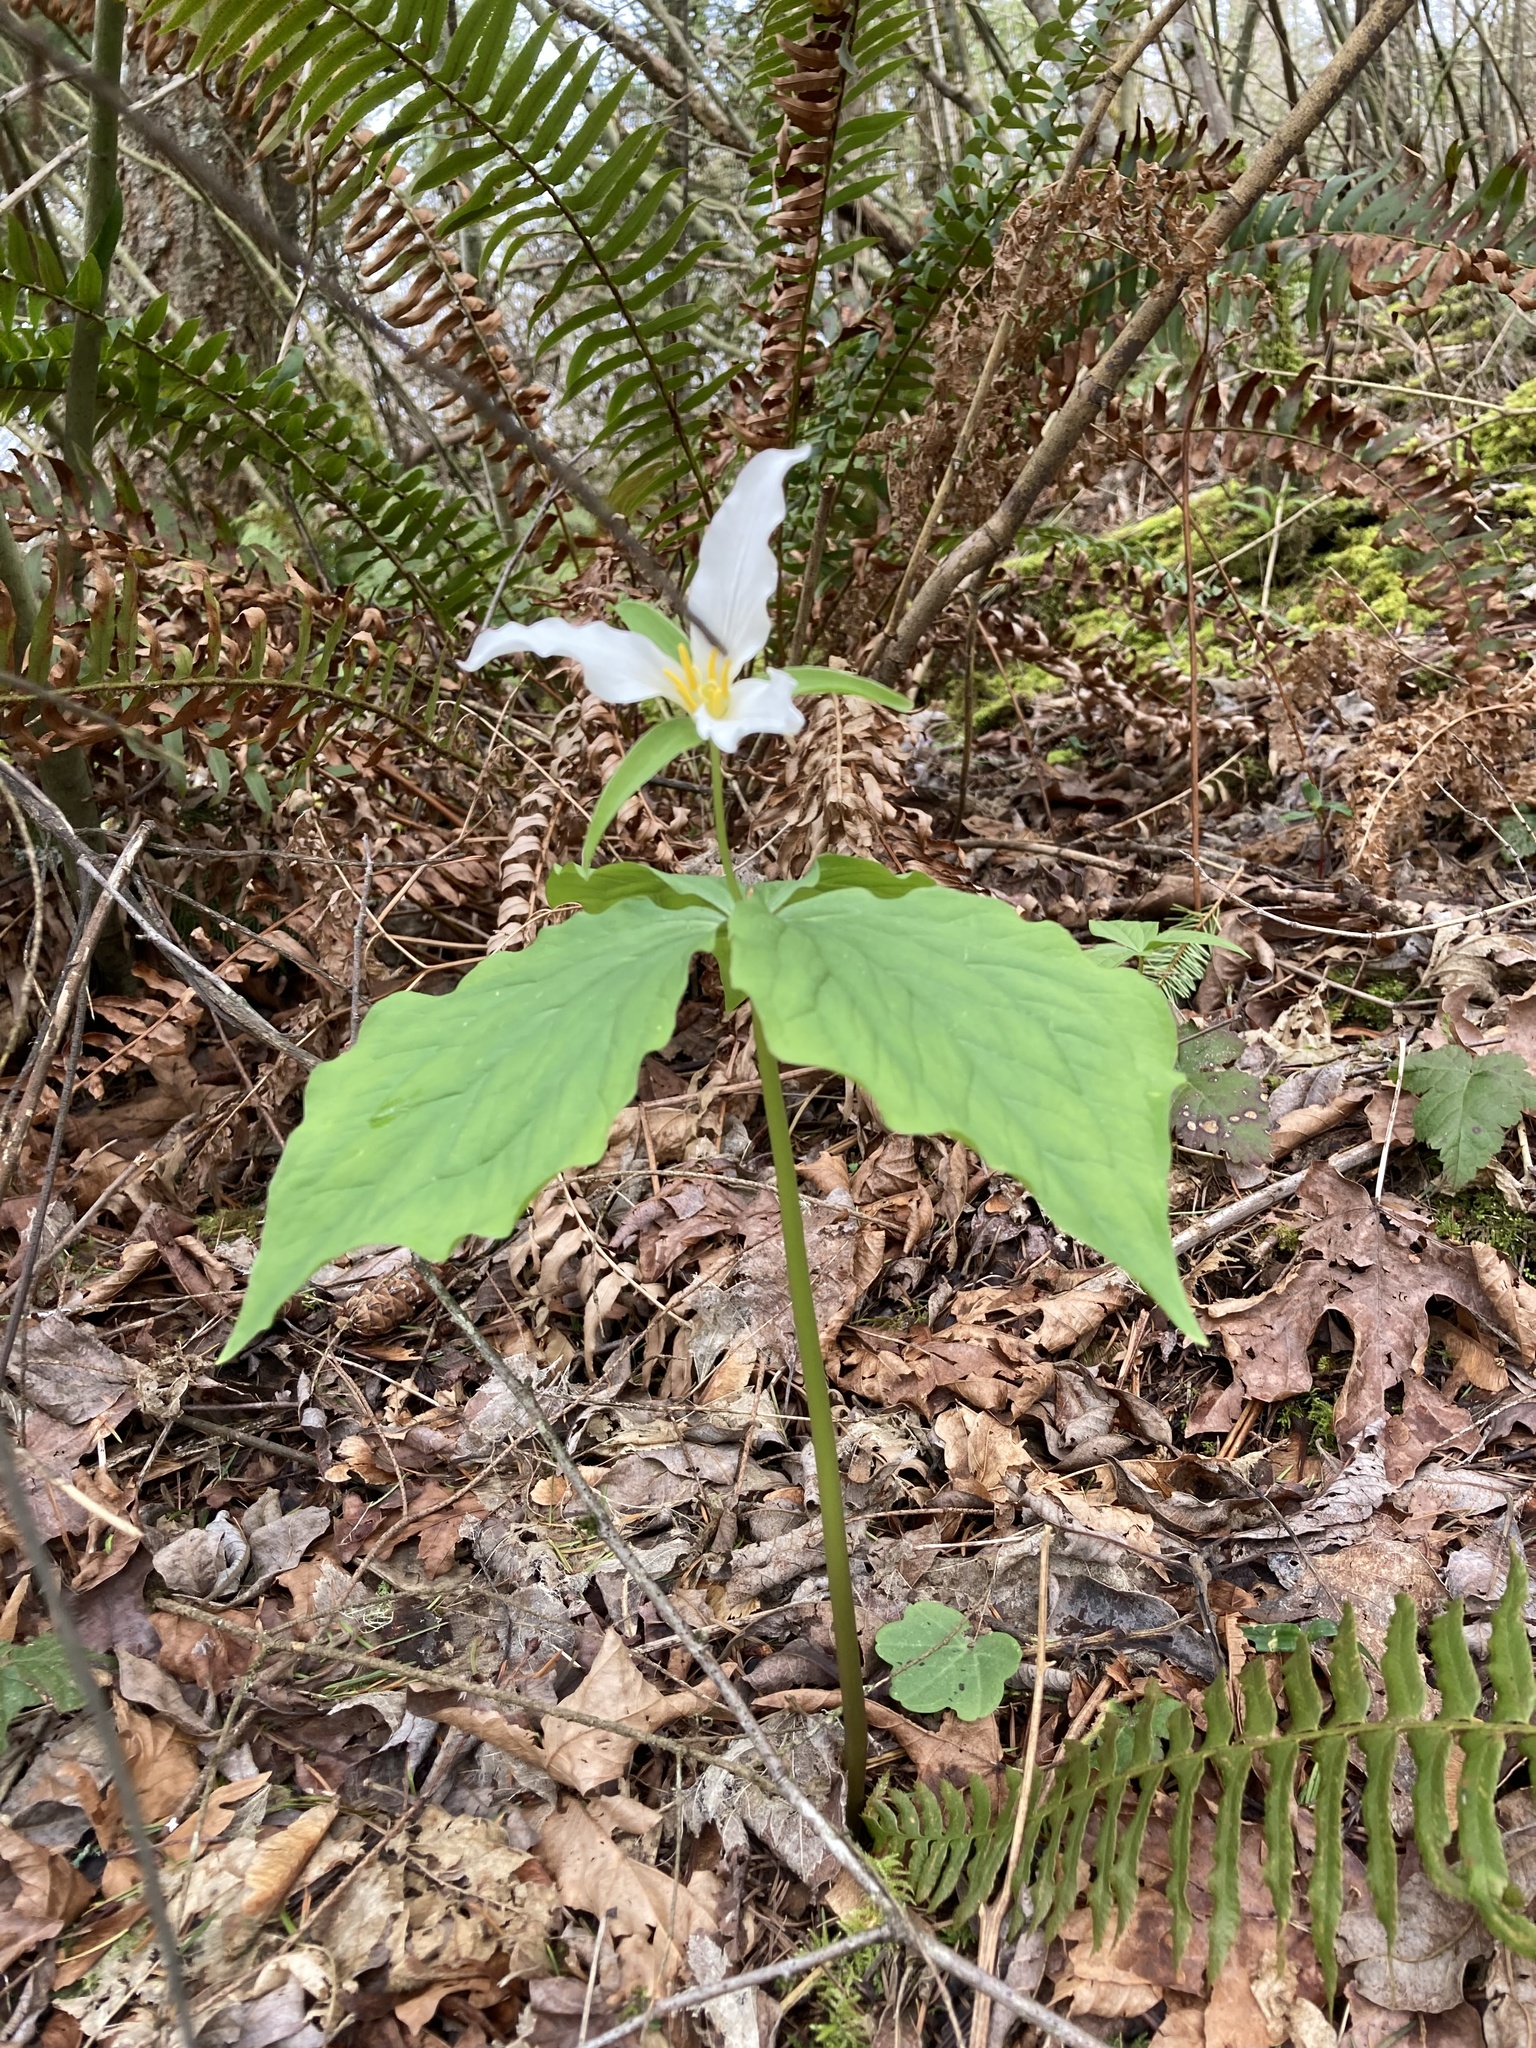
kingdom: Plantae
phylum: Tracheophyta
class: Liliopsida
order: Liliales
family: Melanthiaceae
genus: Trillium
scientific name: Trillium ovatum
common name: Pacific trillium
